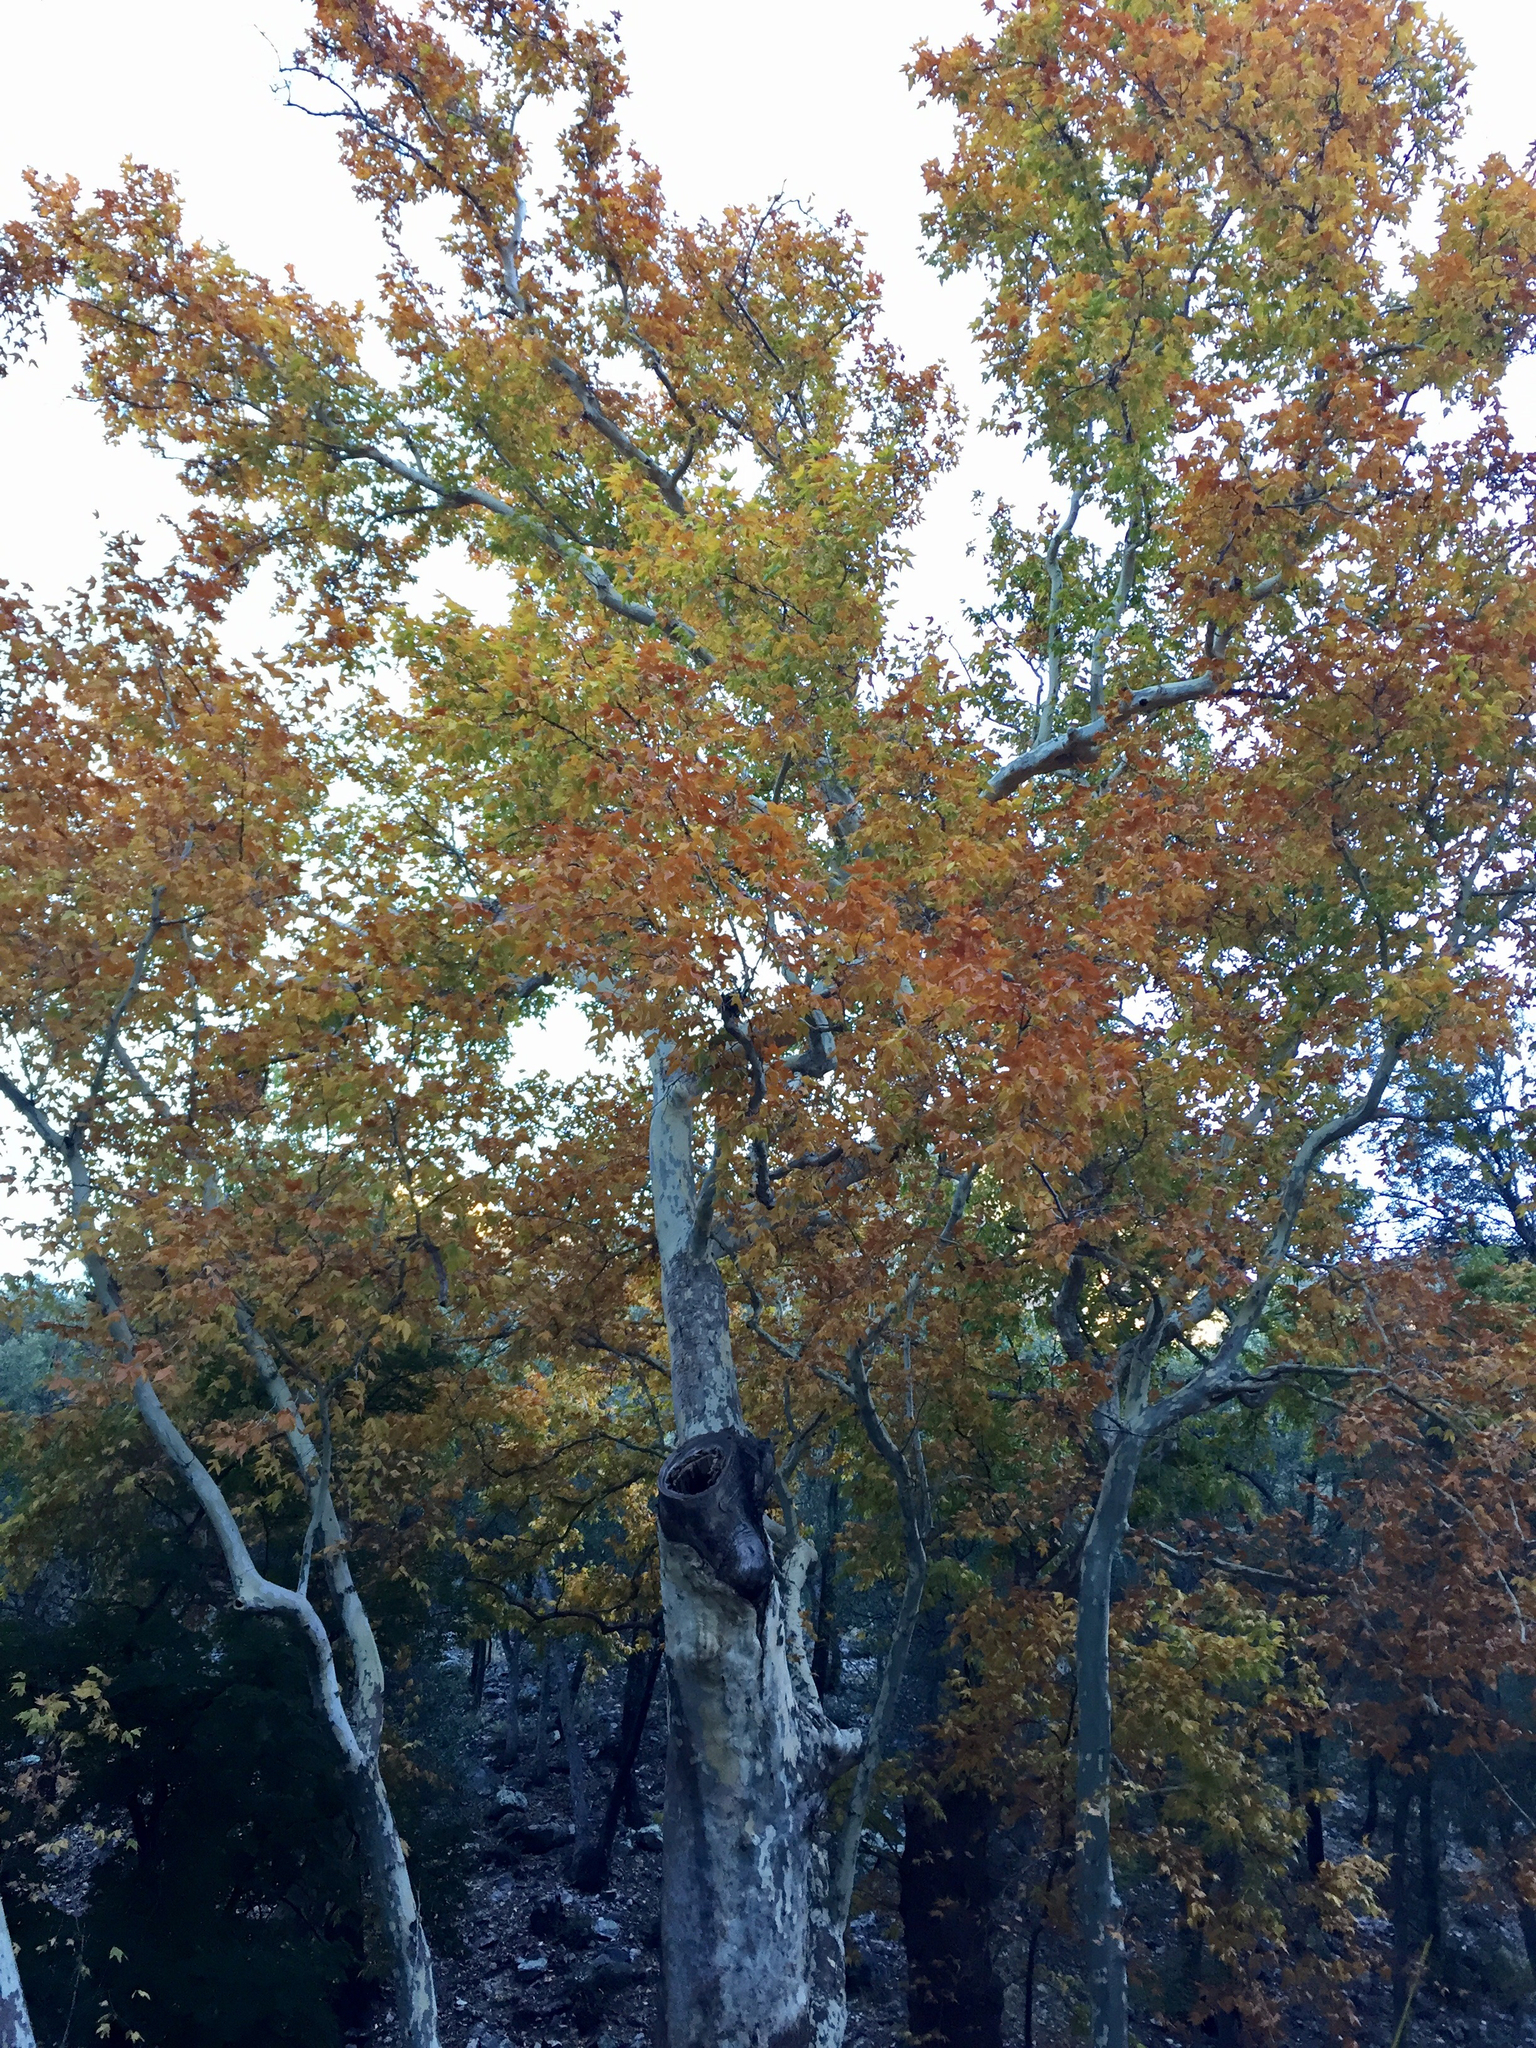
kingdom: Plantae
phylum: Tracheophyta
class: Magnoliopsida
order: Proteales
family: Platanaceae
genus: Platanus
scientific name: Platanus wrightii
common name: Arizona sycamore
